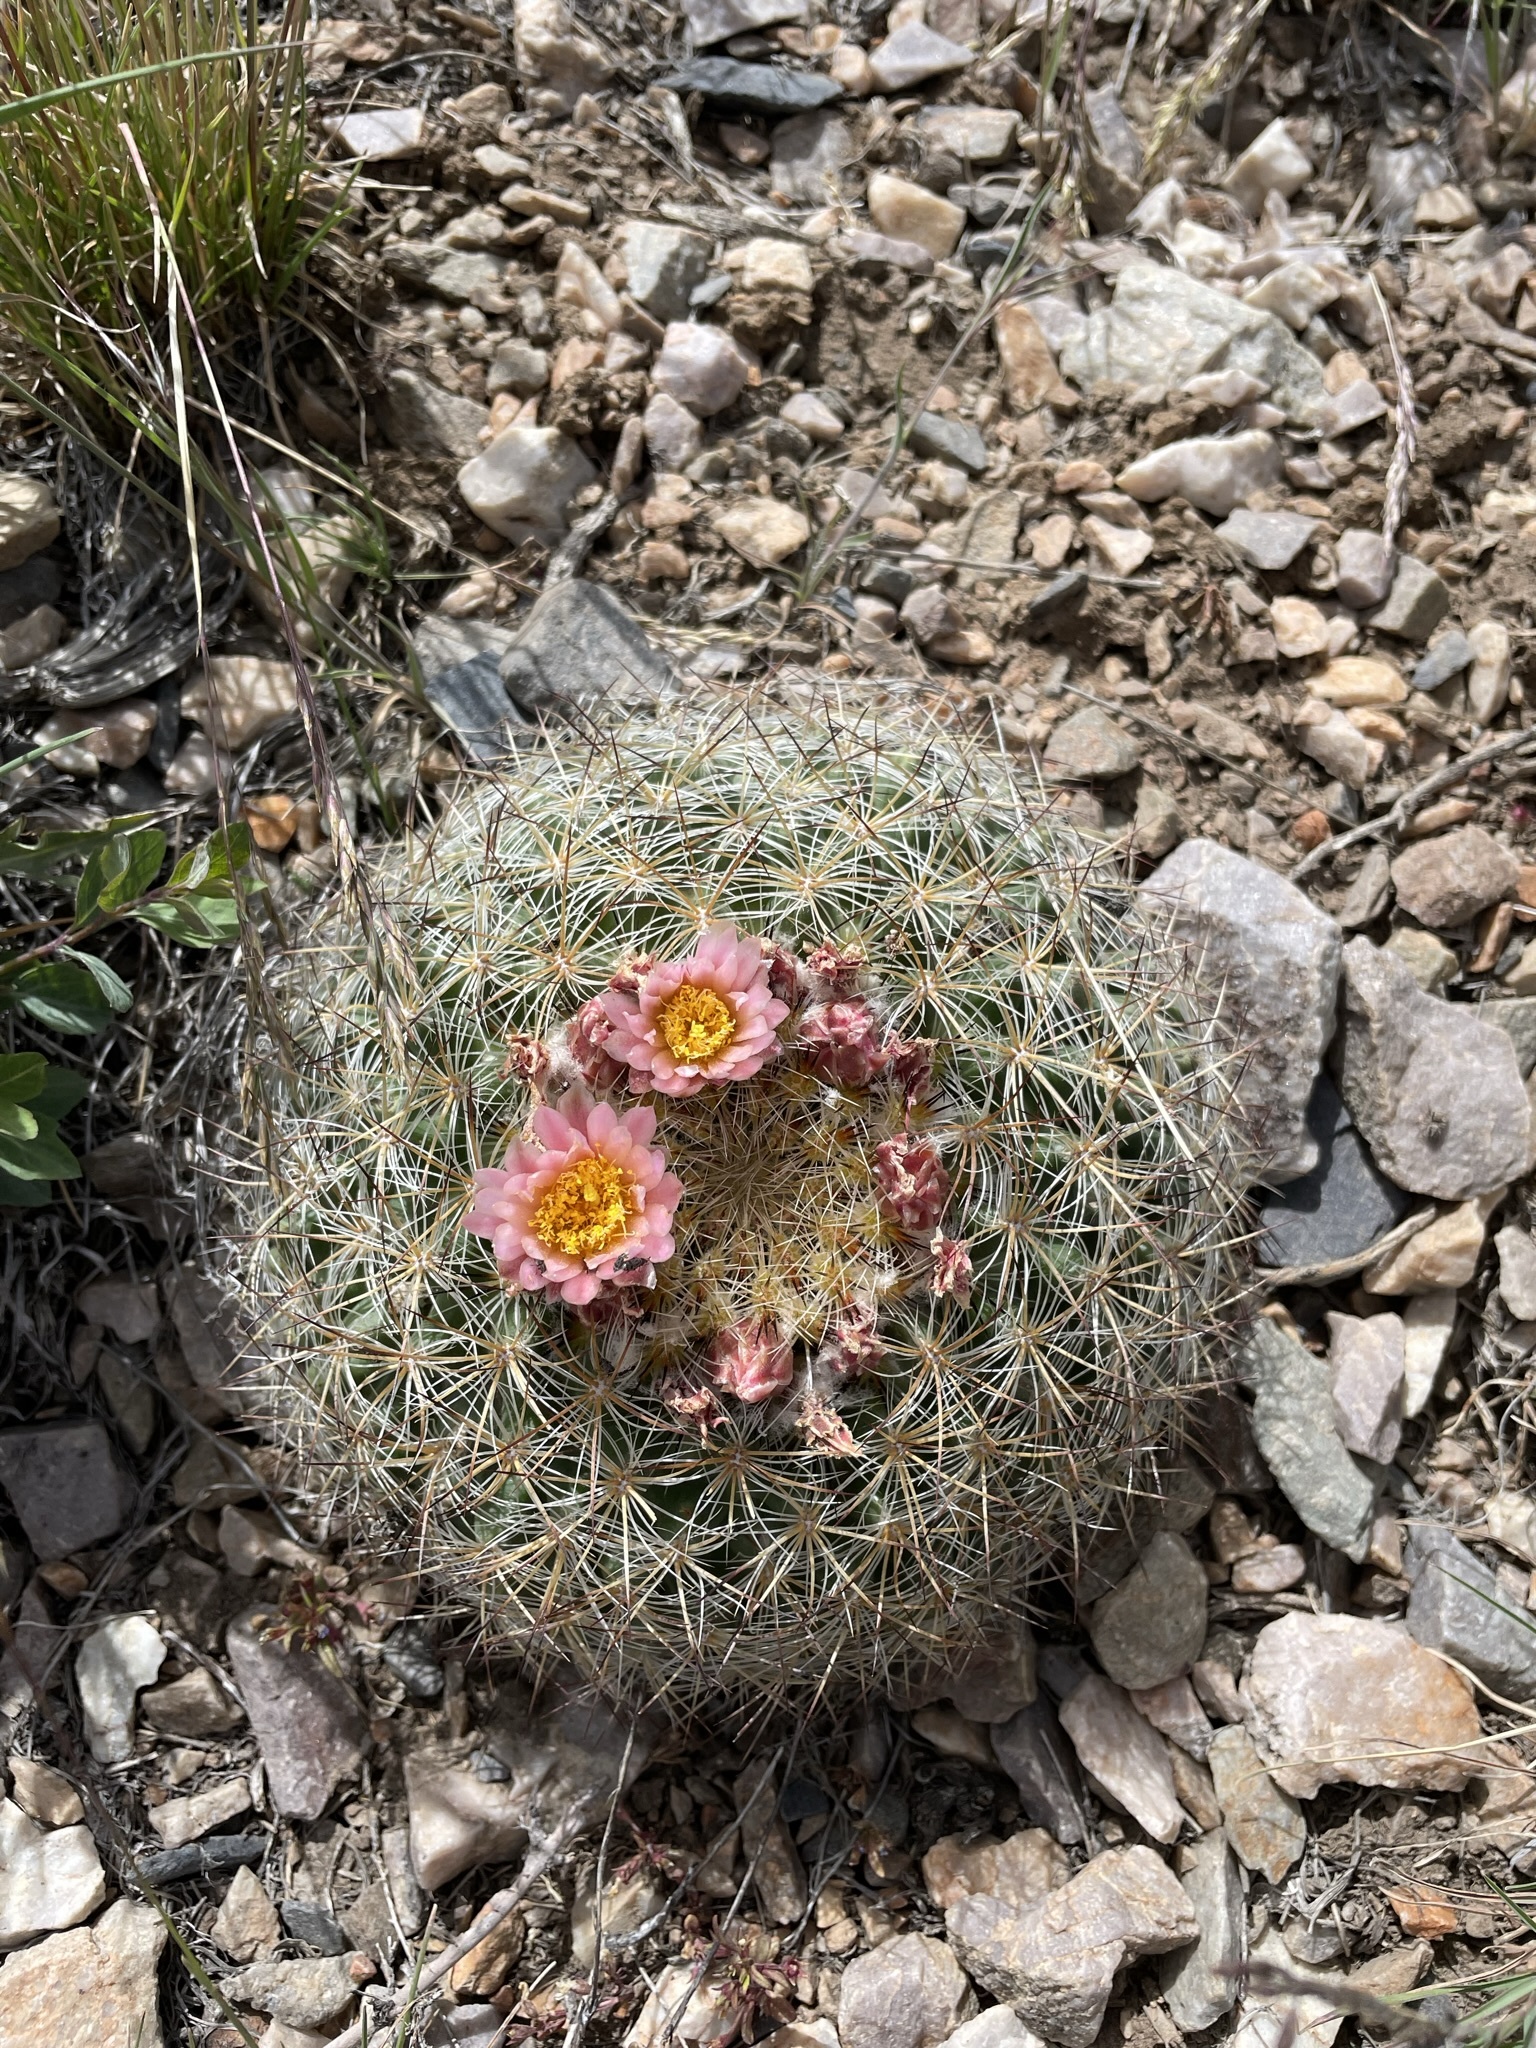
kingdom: Plantae
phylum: Tracheophyta
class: Magnoliopsida
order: Caryophyllales
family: Cactaceae
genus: Pediocactus
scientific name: Pediocactus simpsonii
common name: Simpson's hedgehog cactus
